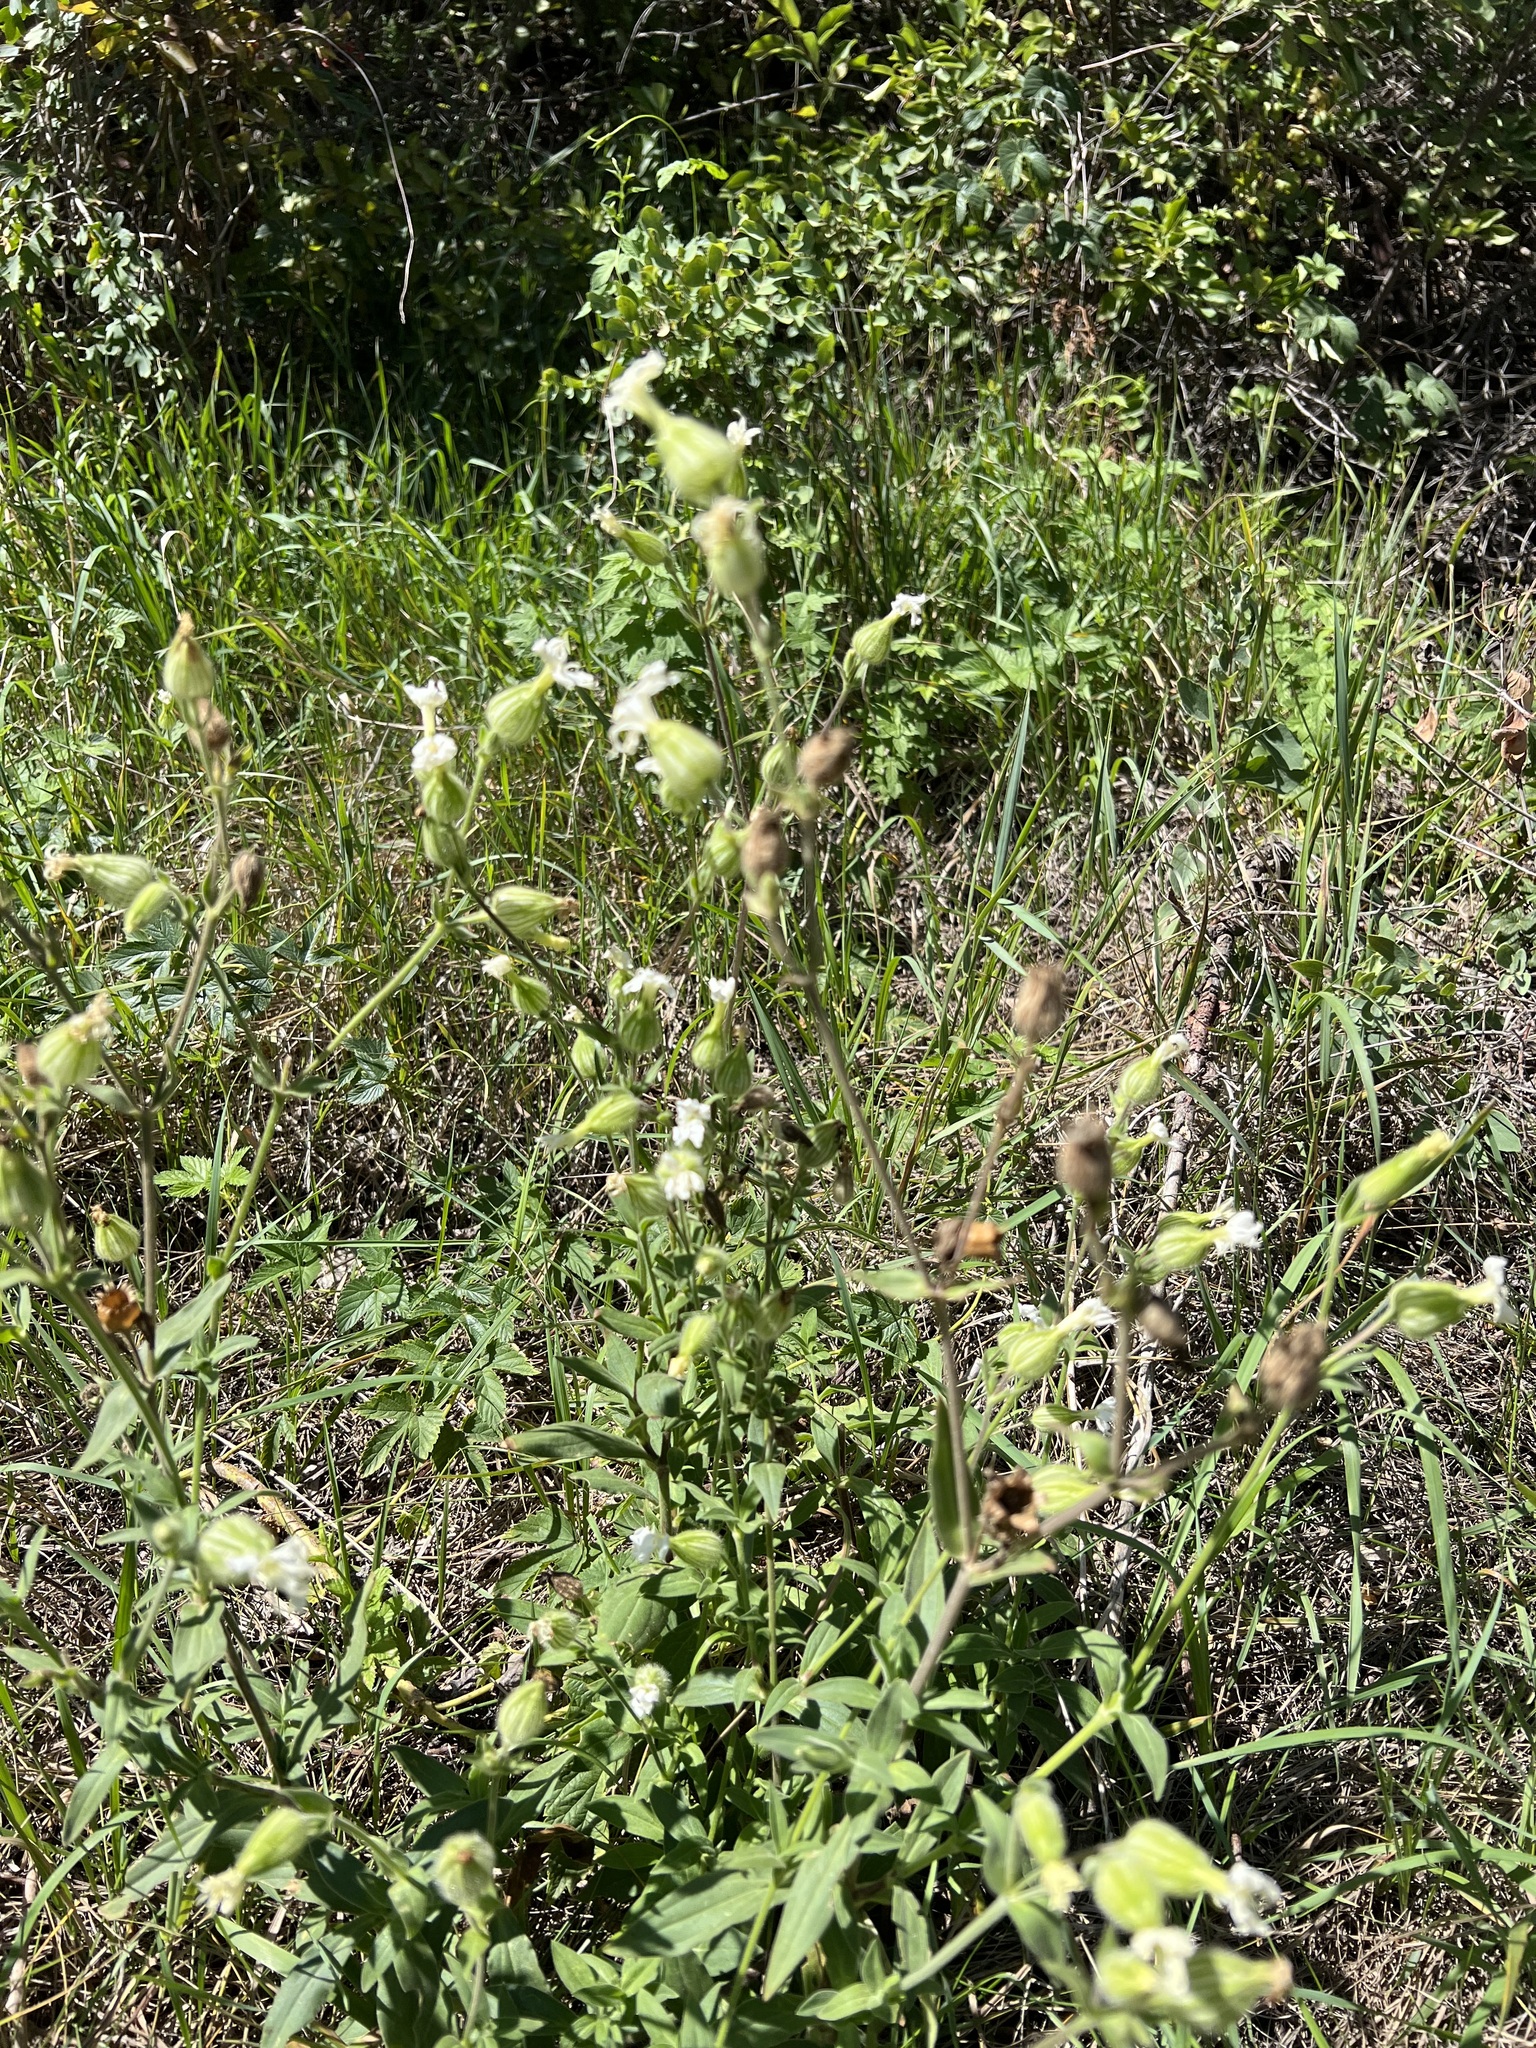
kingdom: Plantae
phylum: Tracheophyta
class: Magnoliopsida
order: Caryophyllales
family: Caryophyllaceae
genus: Silene
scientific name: Silene latifolia
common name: White campion
